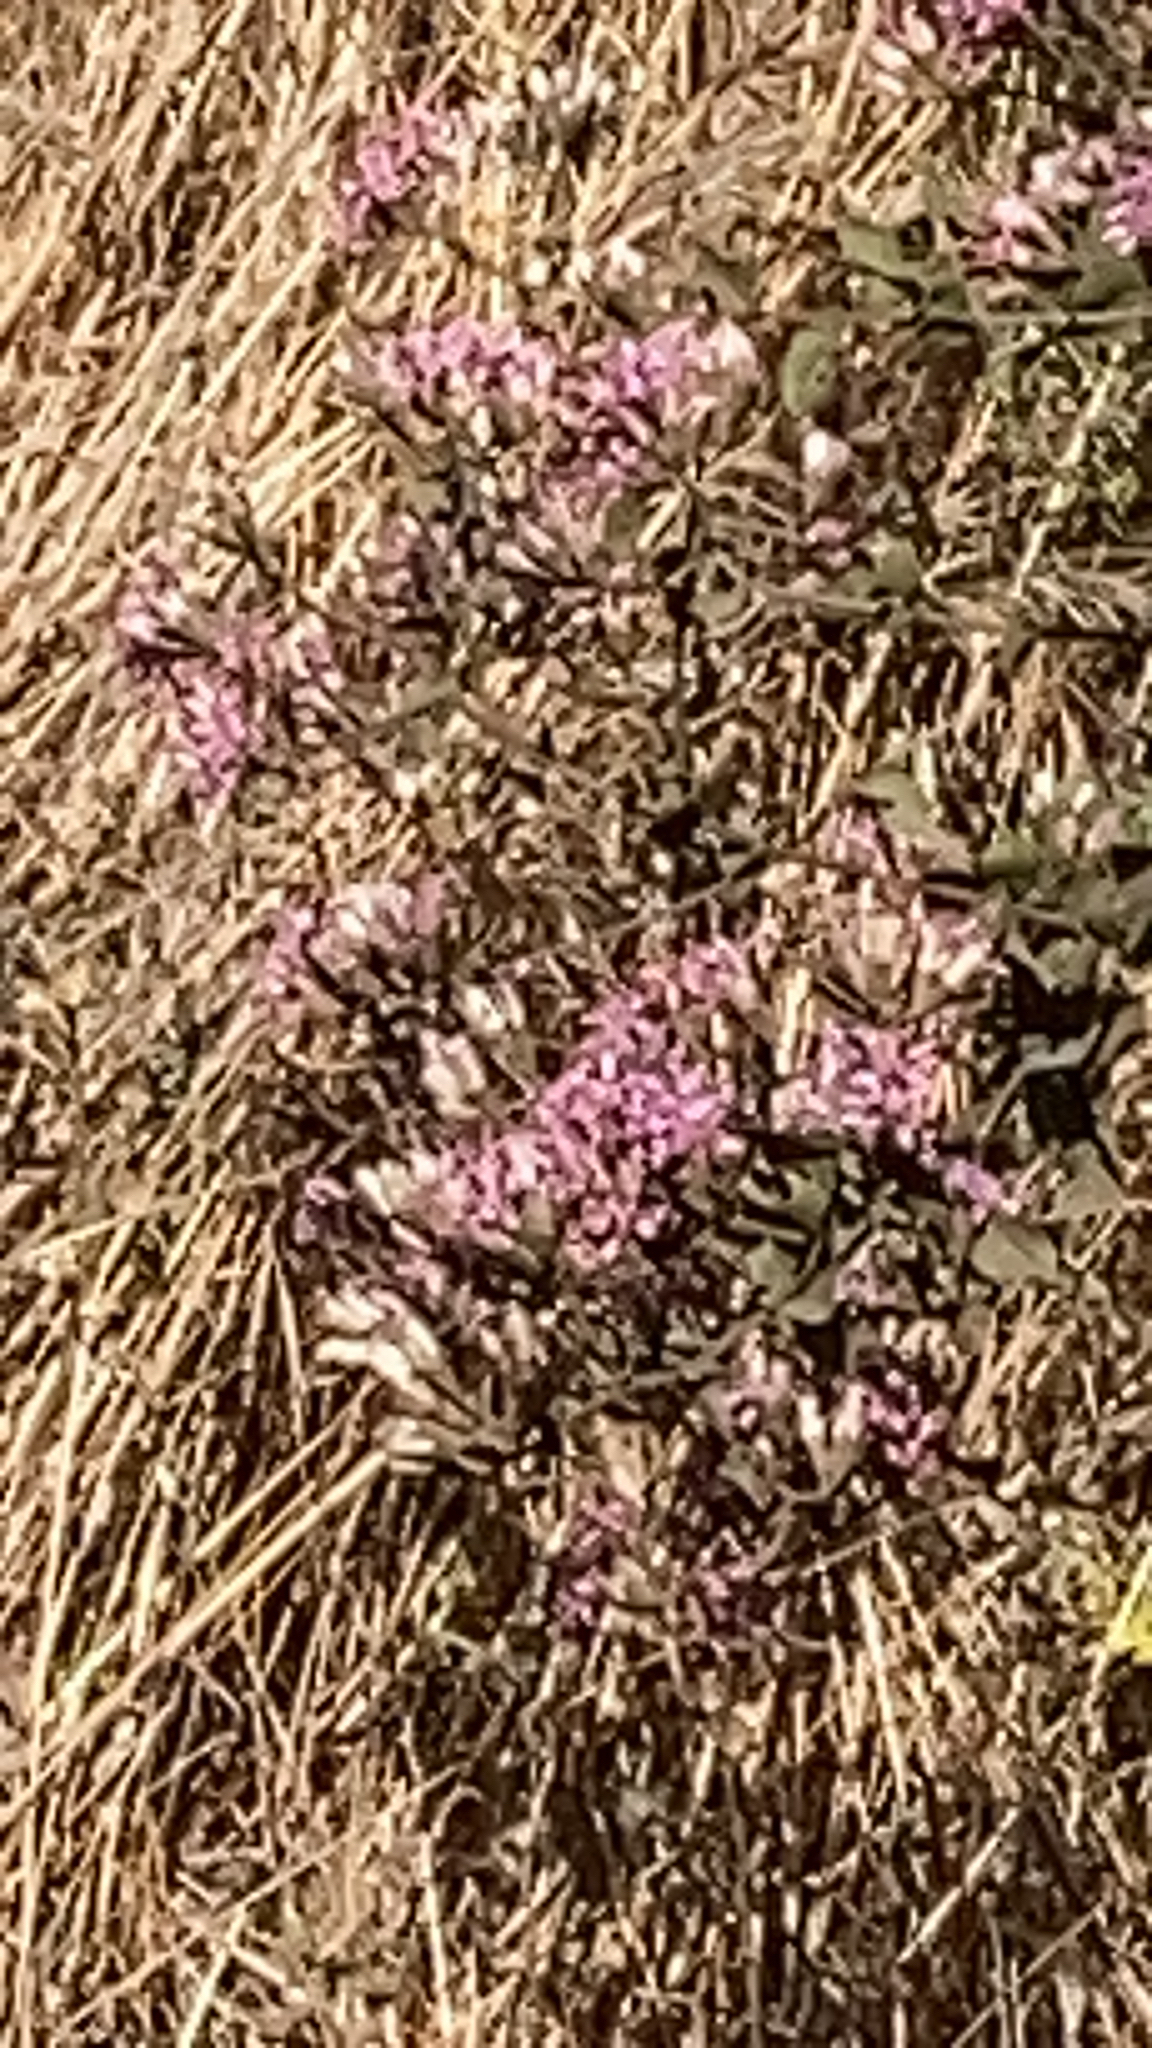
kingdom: Plantae
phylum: Tracheophyta
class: Magnoliopsida
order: Asterales
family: Asteraceae
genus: Acourtia
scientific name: Acourtia microcephala
